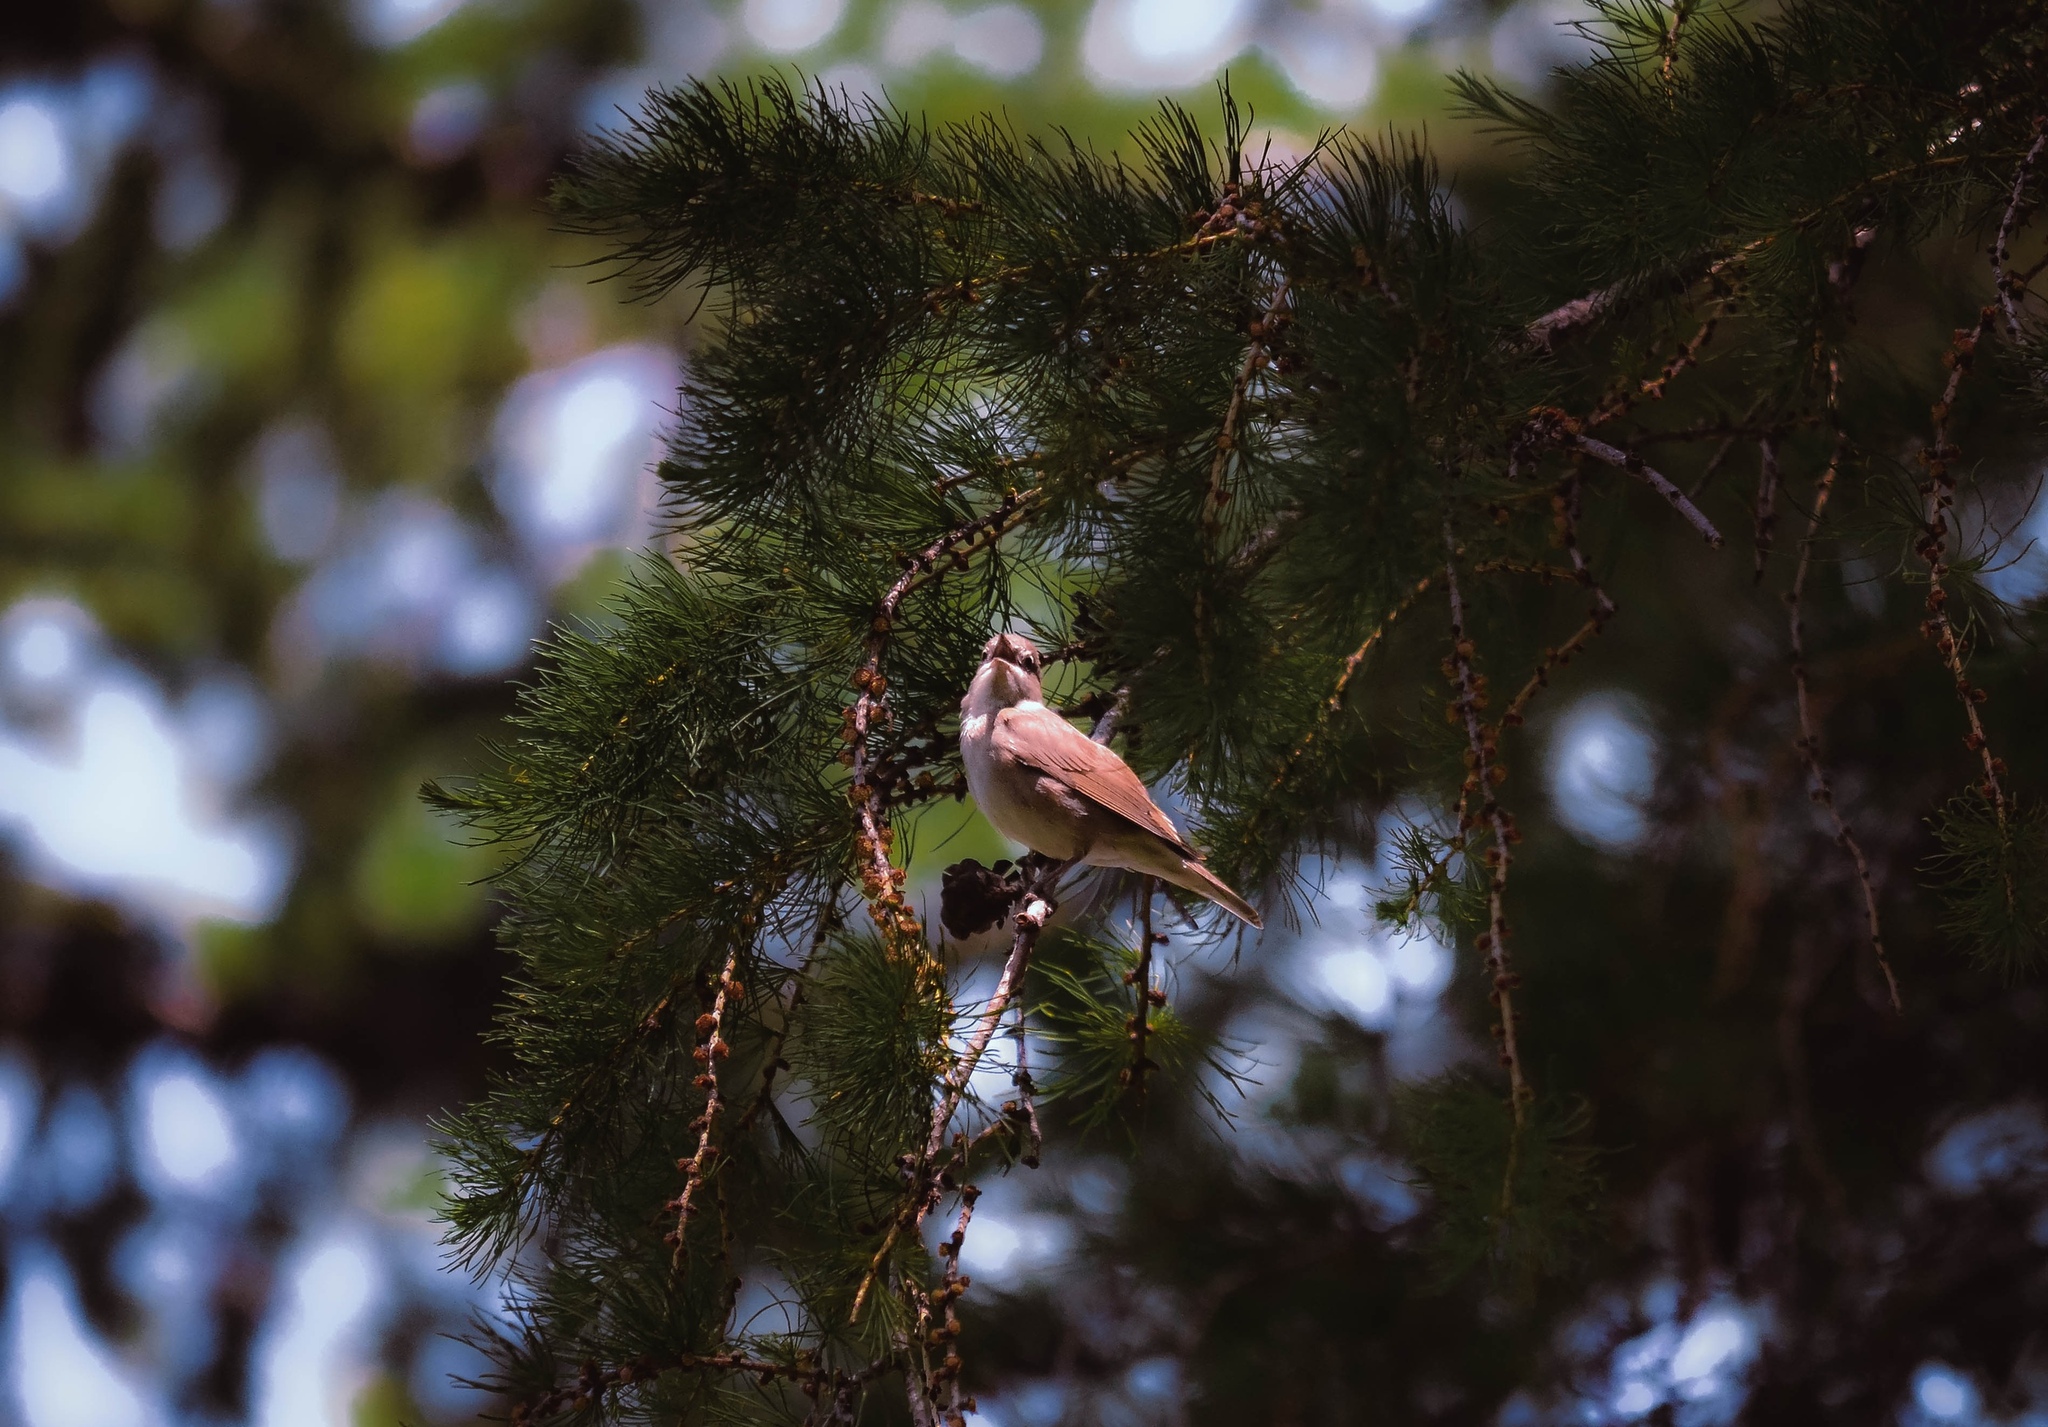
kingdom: Animalia
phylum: Chordata
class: Aves
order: Passeriformes
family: Sylviidae
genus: Sylvia
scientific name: Sylvia borin
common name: Garden warbler
